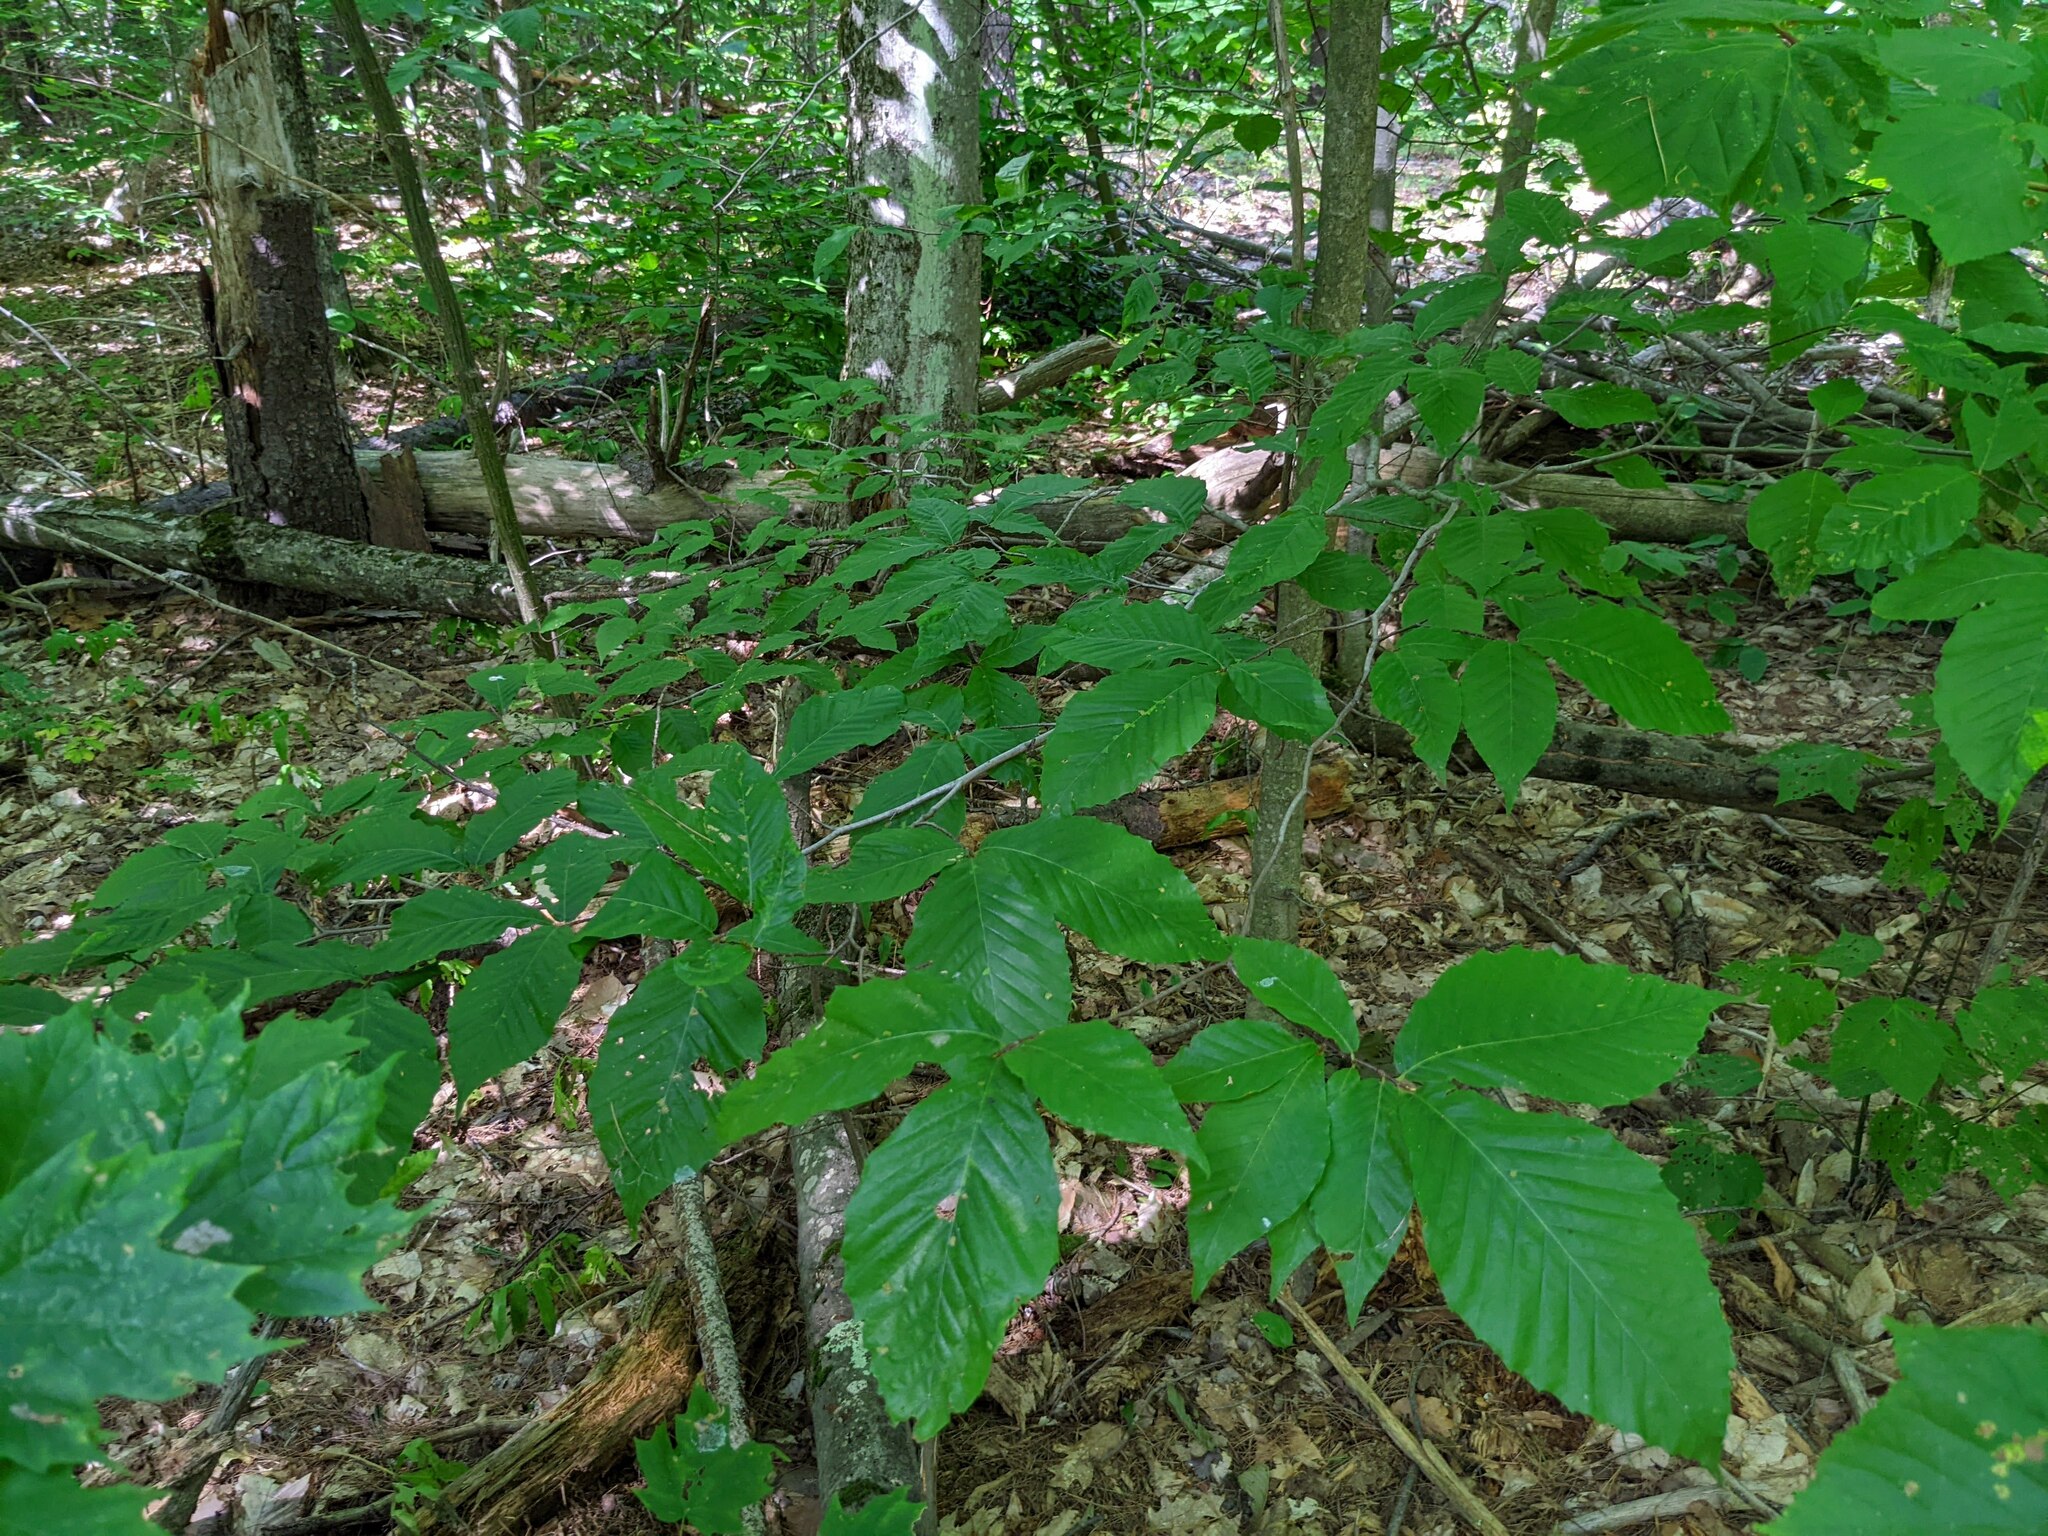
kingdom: Plantae
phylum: Tracheophyta
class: Magnoliopsida
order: Fagales
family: Fagaceae
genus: Fagus
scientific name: Fagus grandifolia
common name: American beech
